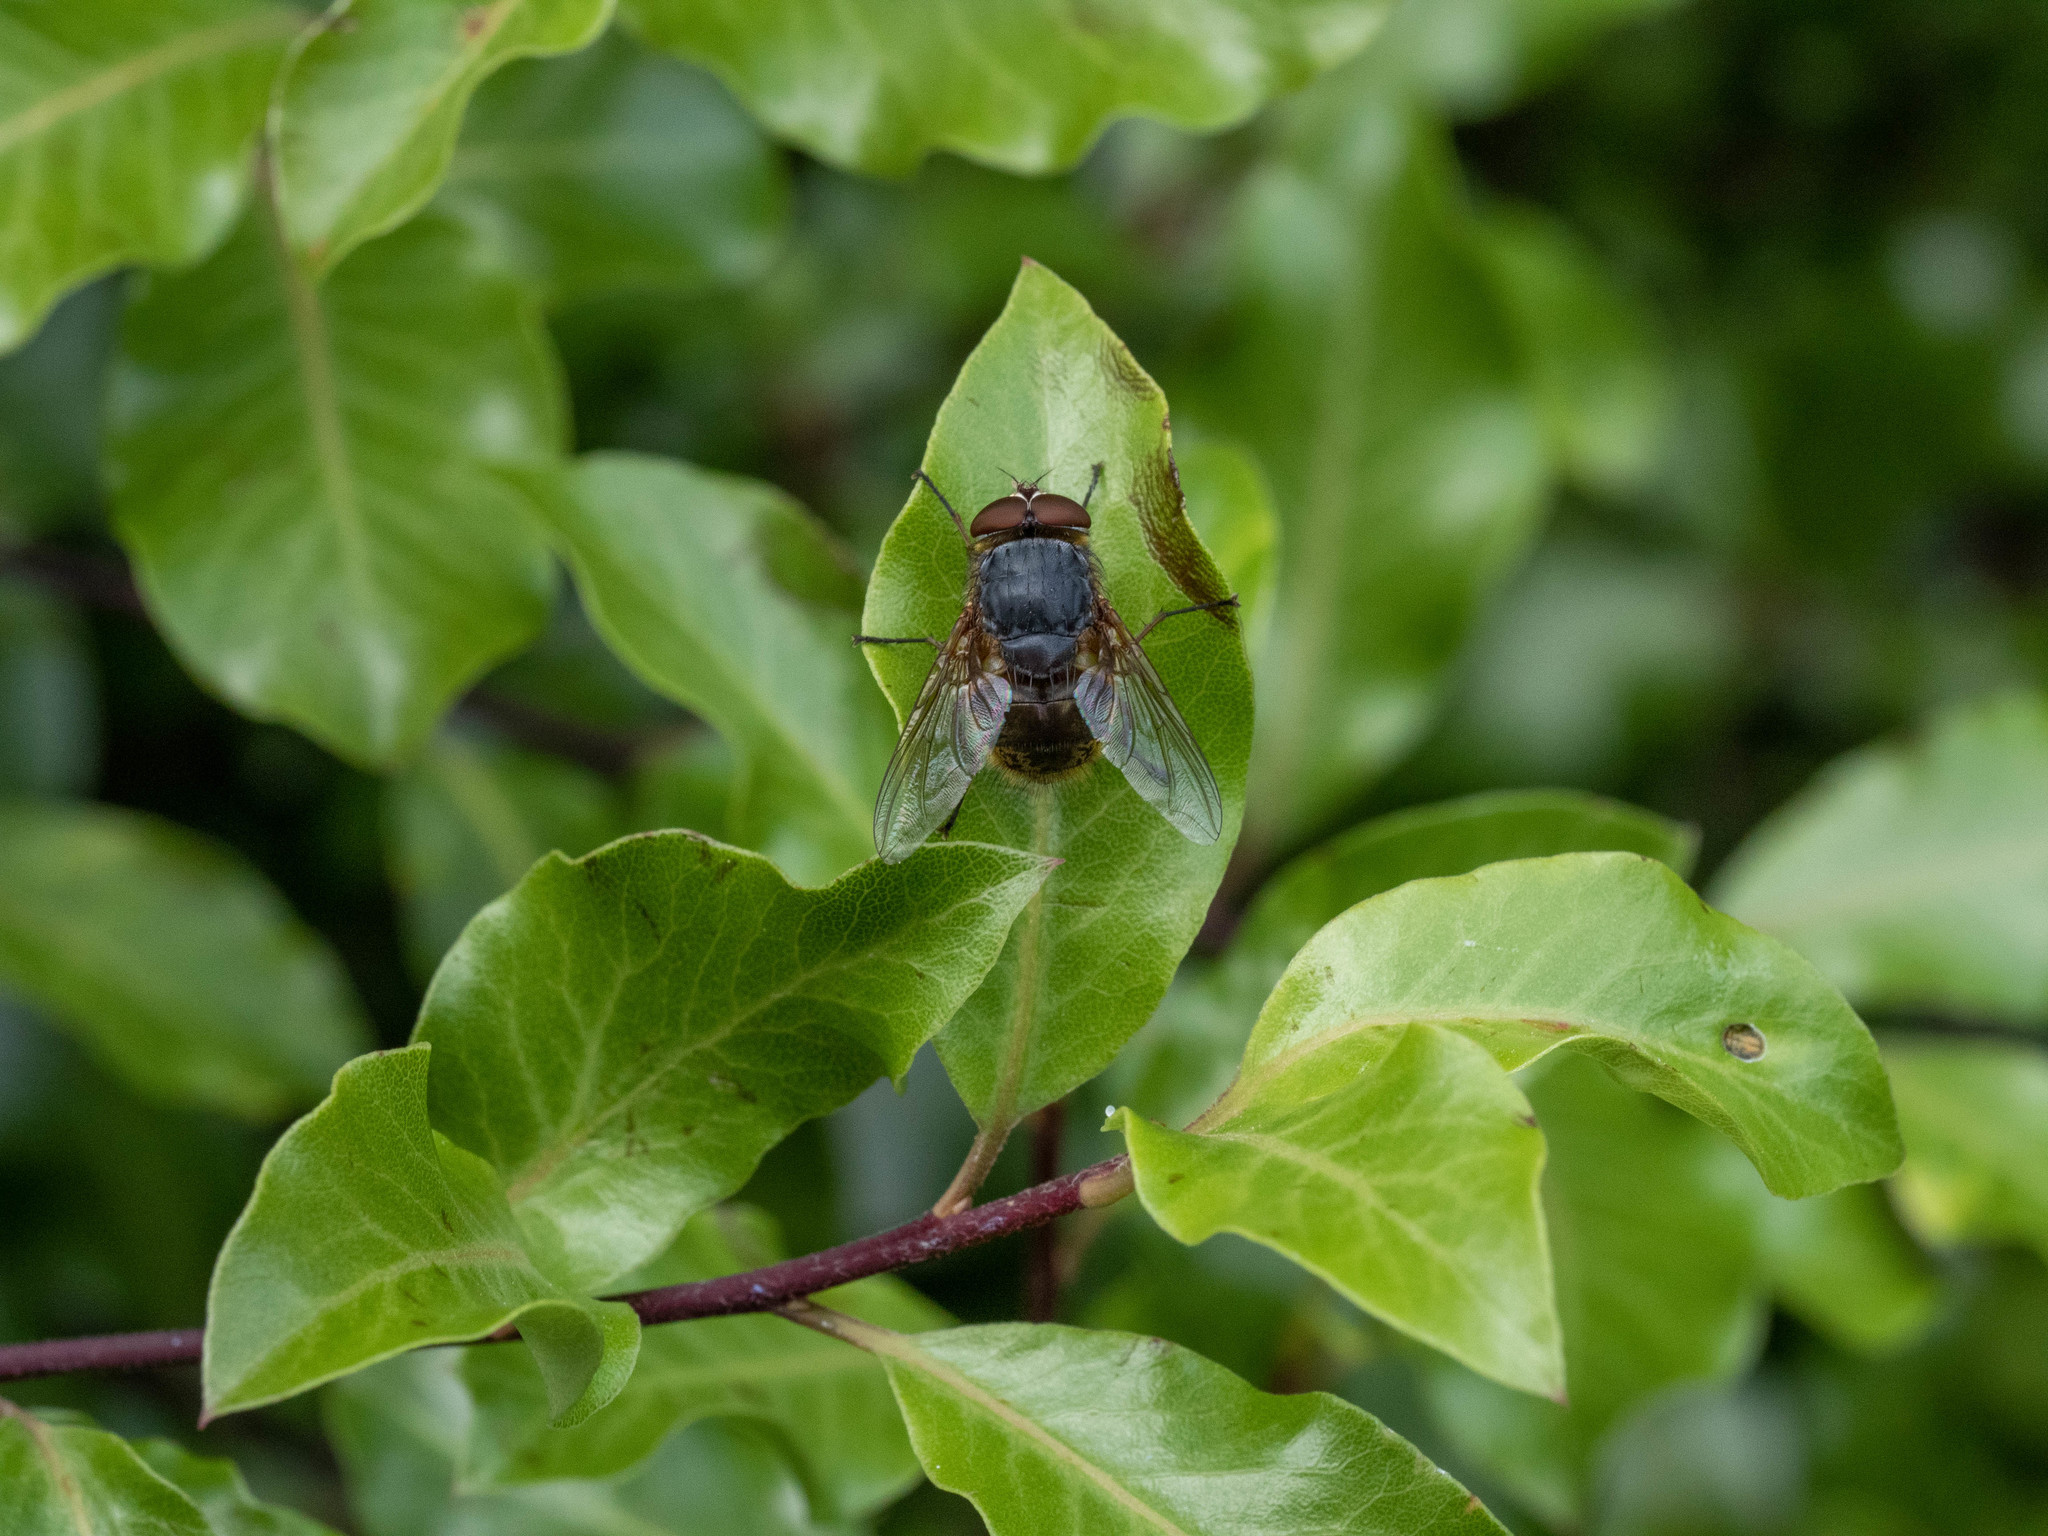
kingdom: Animalia
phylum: Arthropoda
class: Insecta
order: Diptera
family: Calliphoridae
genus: Calliphora
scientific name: Calliphora stygia
